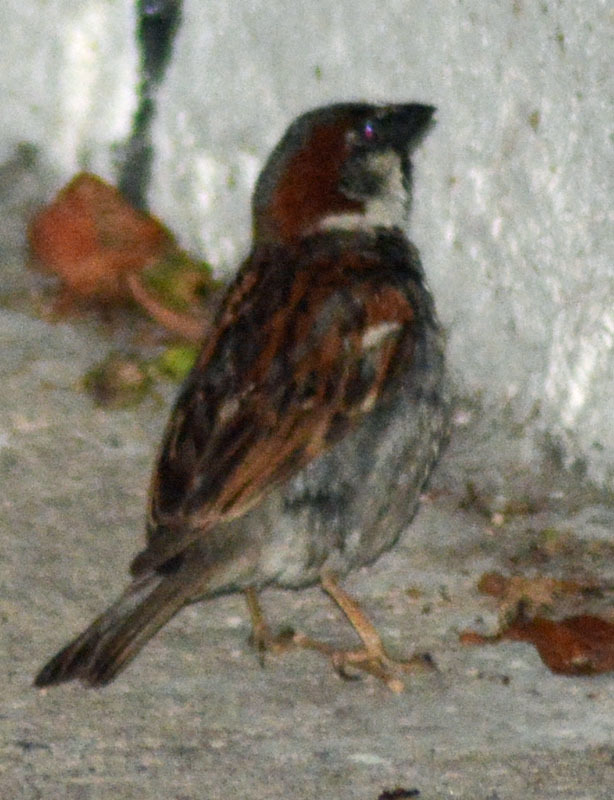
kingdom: Animalia
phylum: Chordata
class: Aves
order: Passeriformes
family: Passeridae
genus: Passer
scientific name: Passer domesticus
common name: House sparrow
